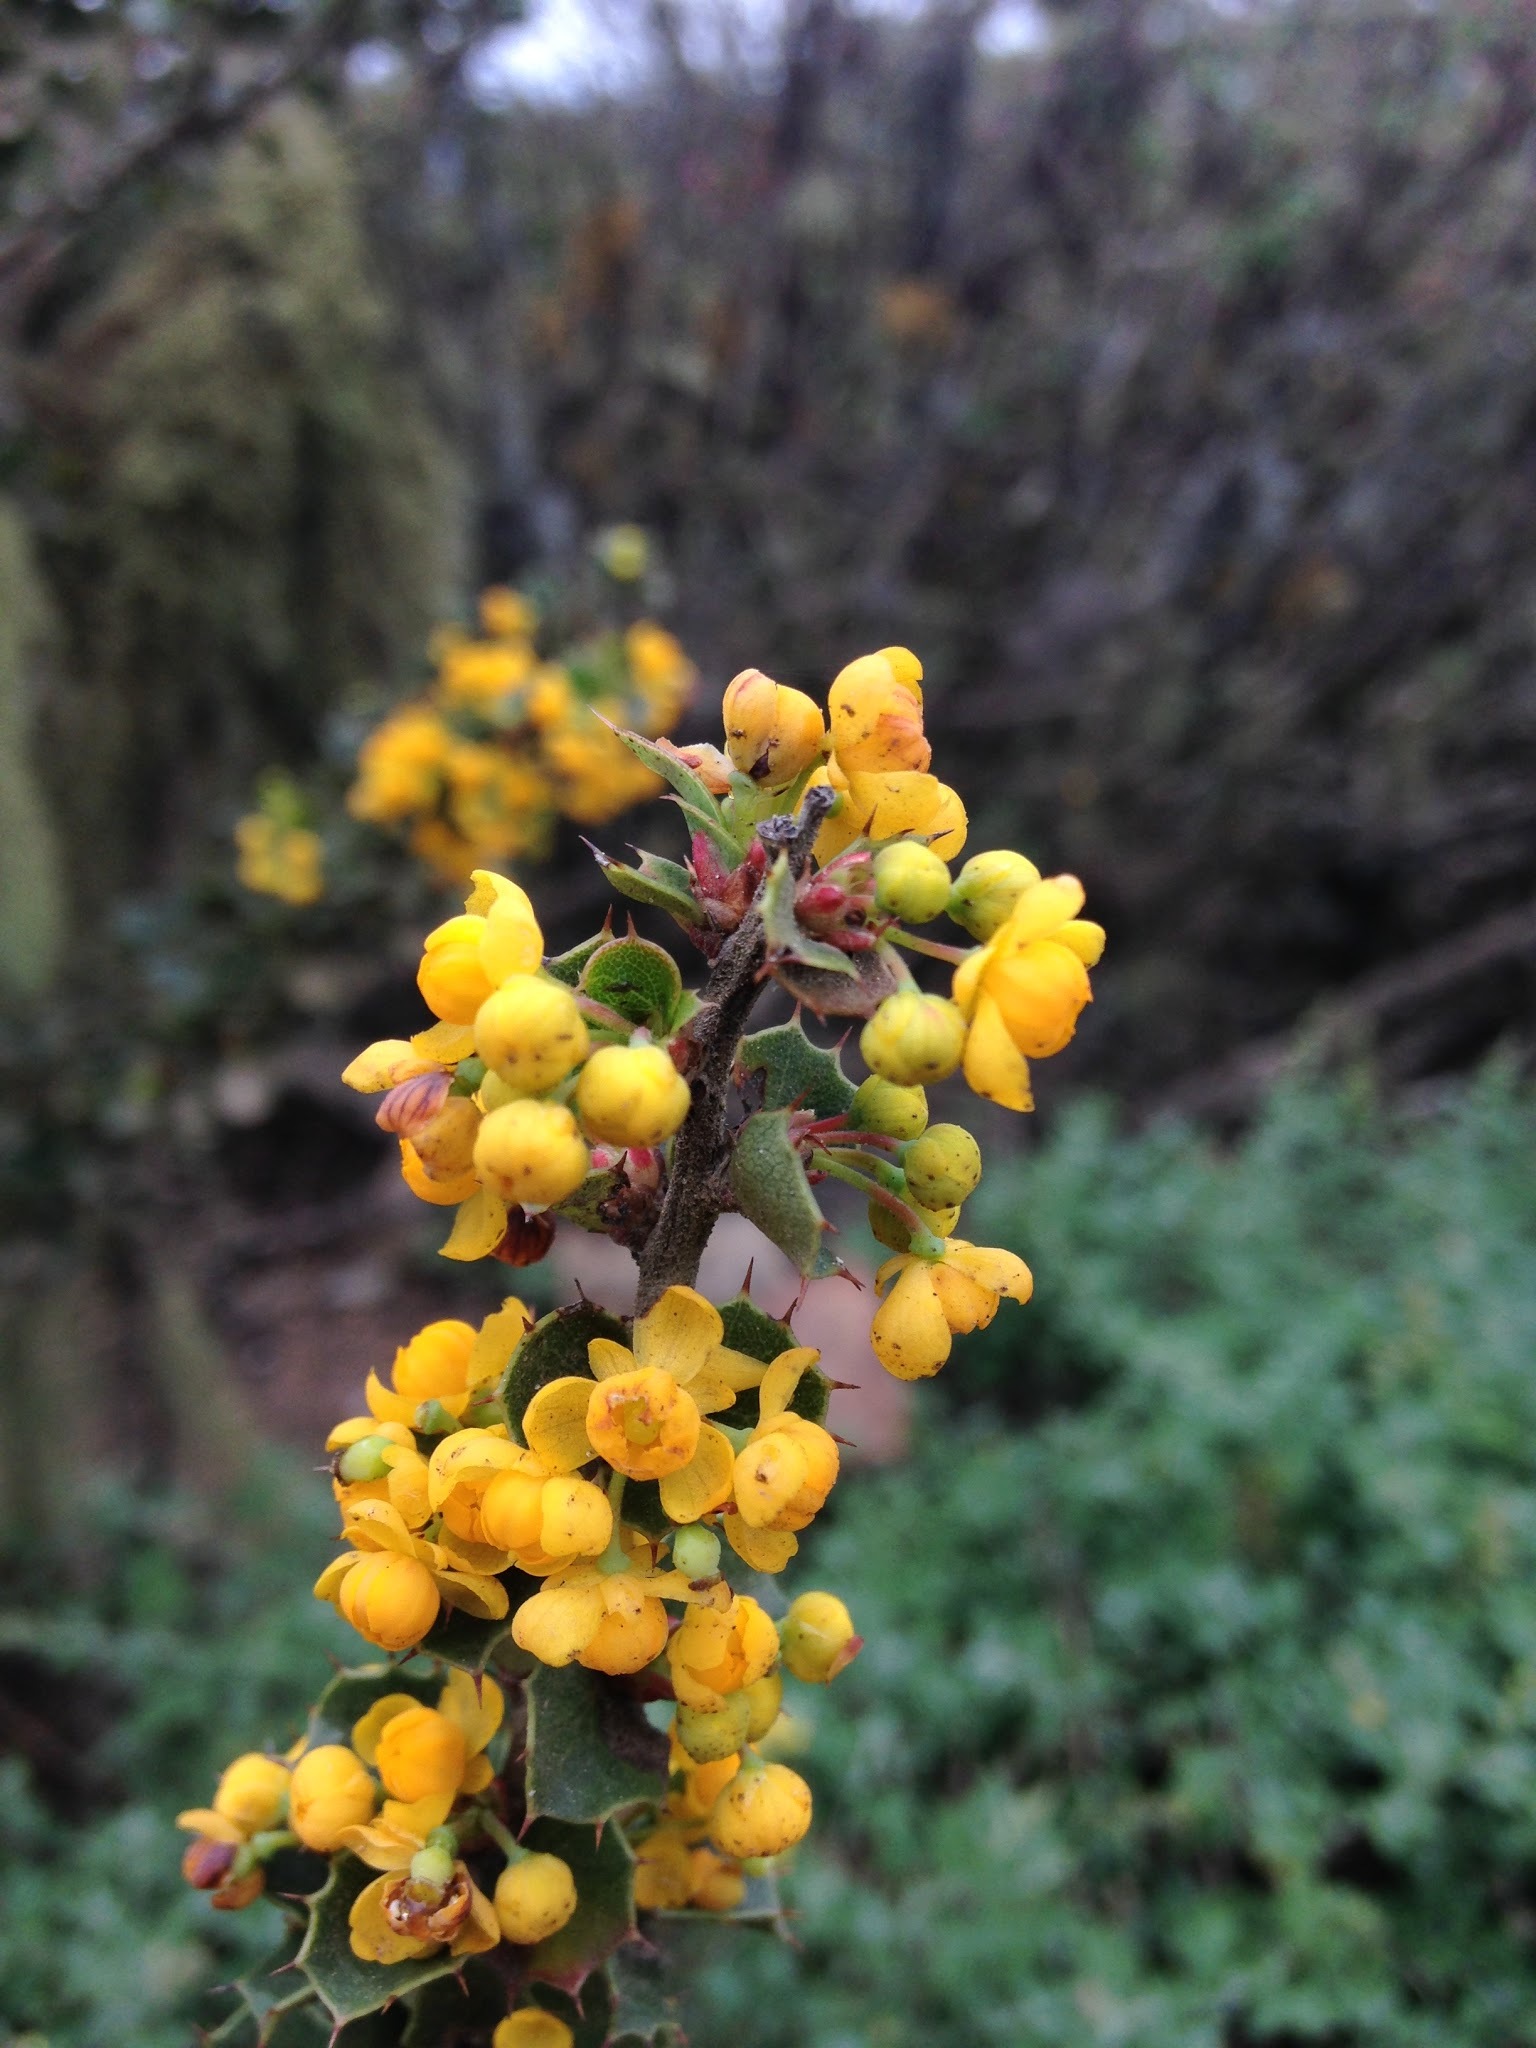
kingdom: Plantae
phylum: Tracheophyta
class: Magnoliopsida
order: Ranunculales
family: Berberidaceae
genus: Berberis
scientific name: Berberis actinacantha
